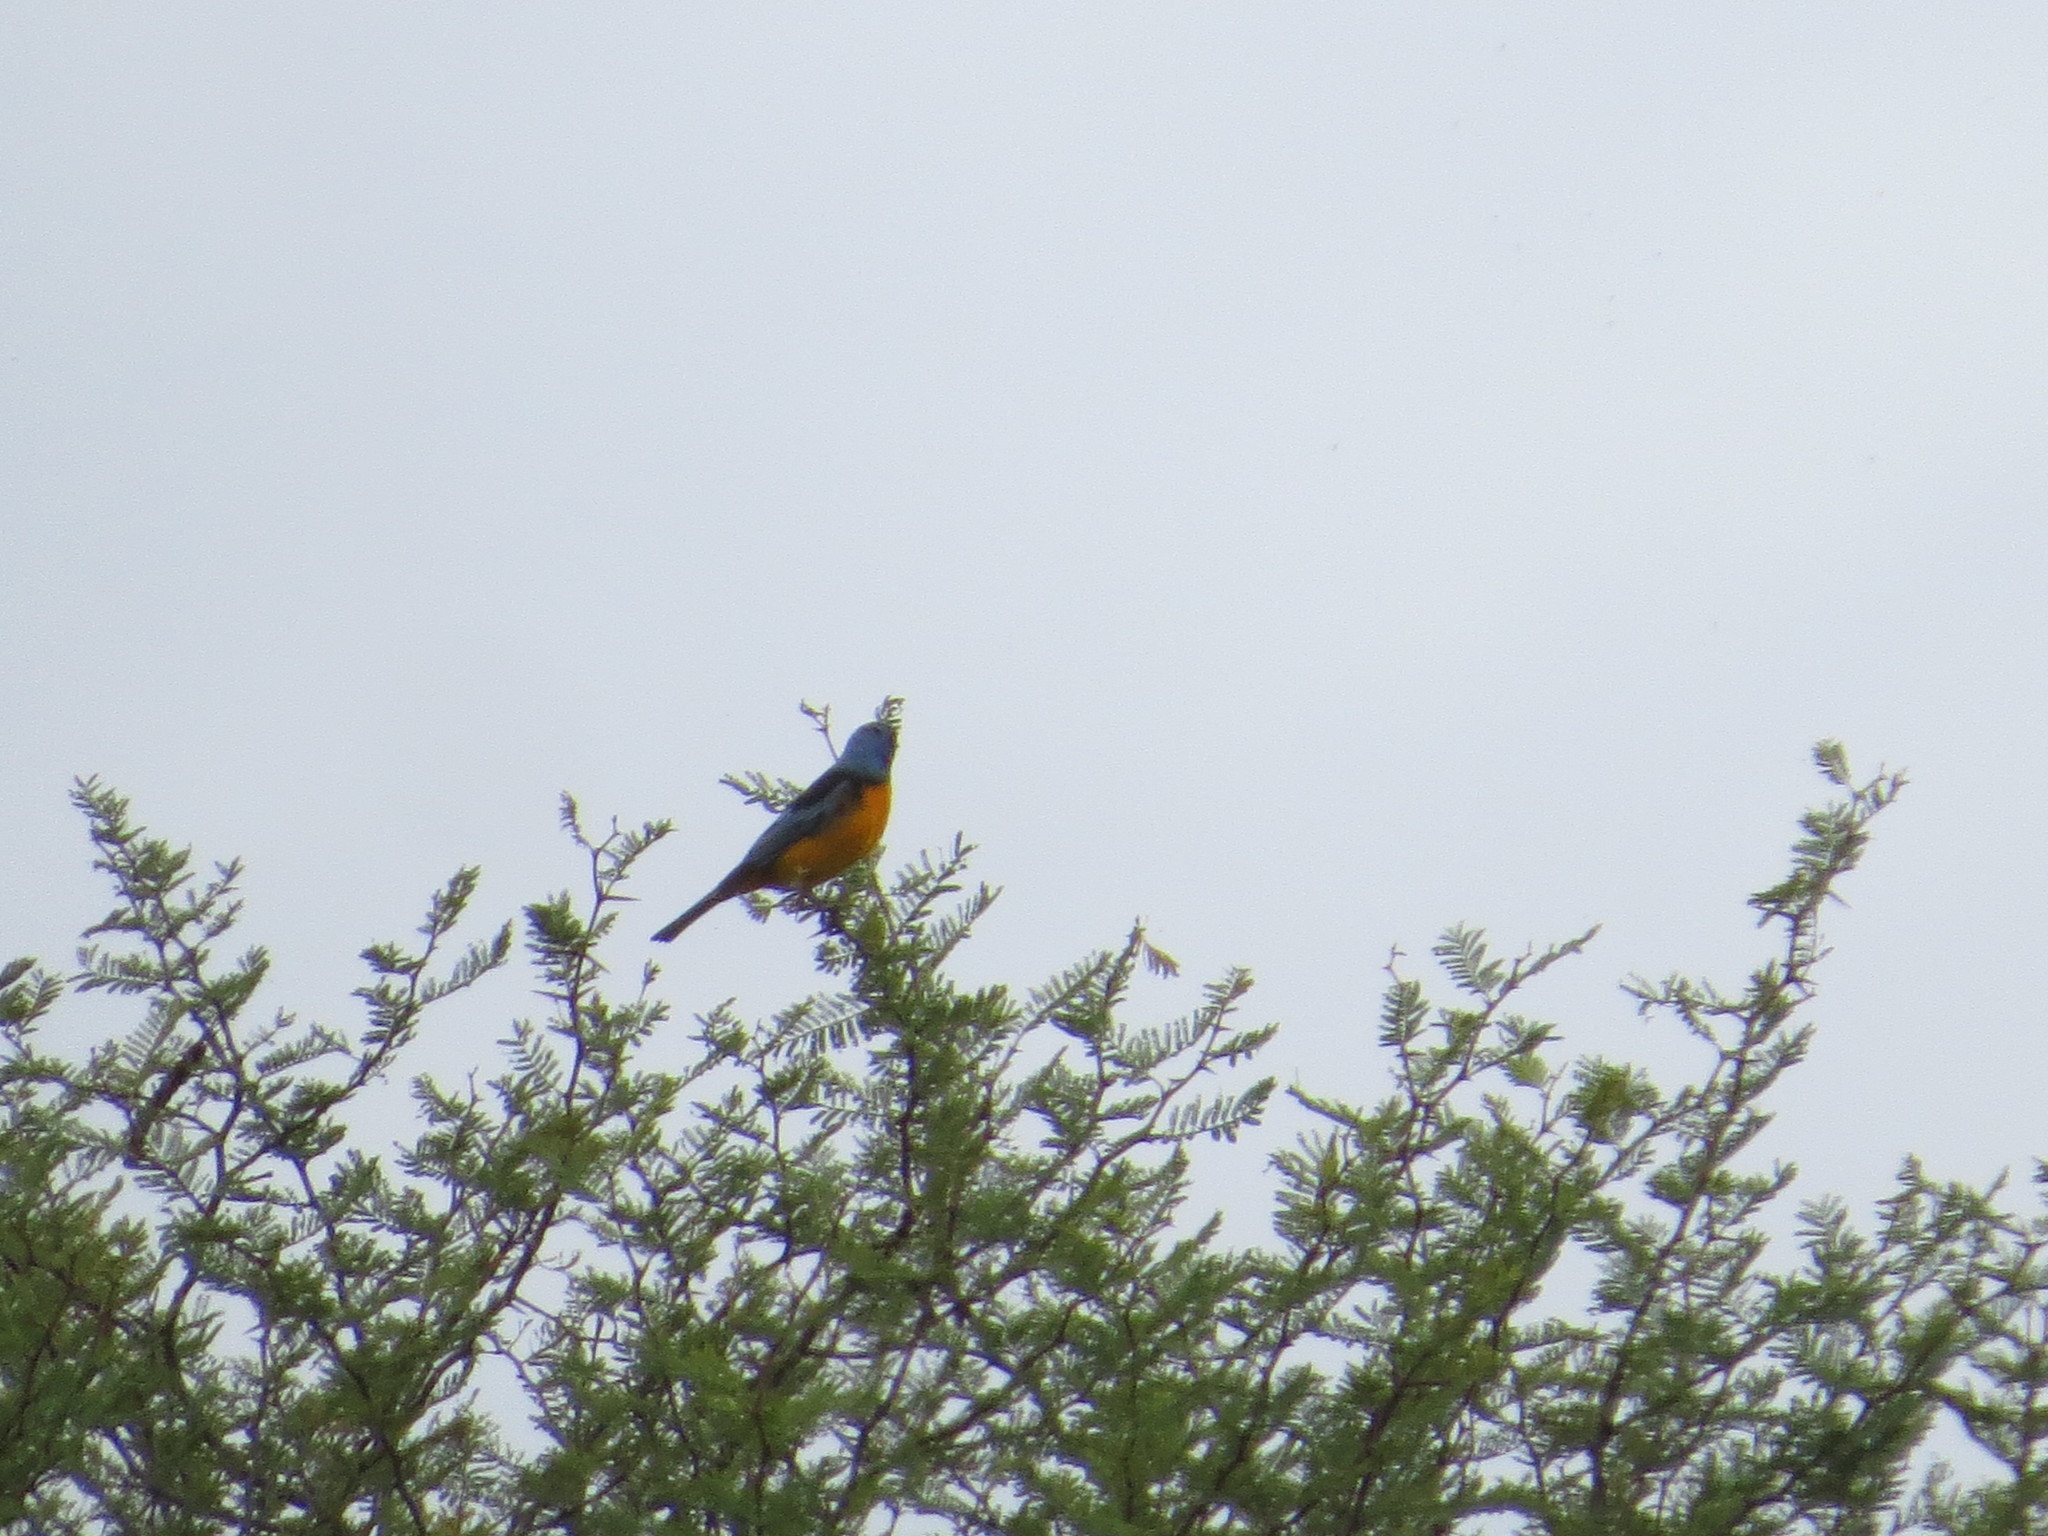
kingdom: Animalia
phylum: Chordata
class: Aves
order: Passeriformes
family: Thraupidae
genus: Rauenia
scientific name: Rauenia bonariensis
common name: Blue-and-yellow tanager
